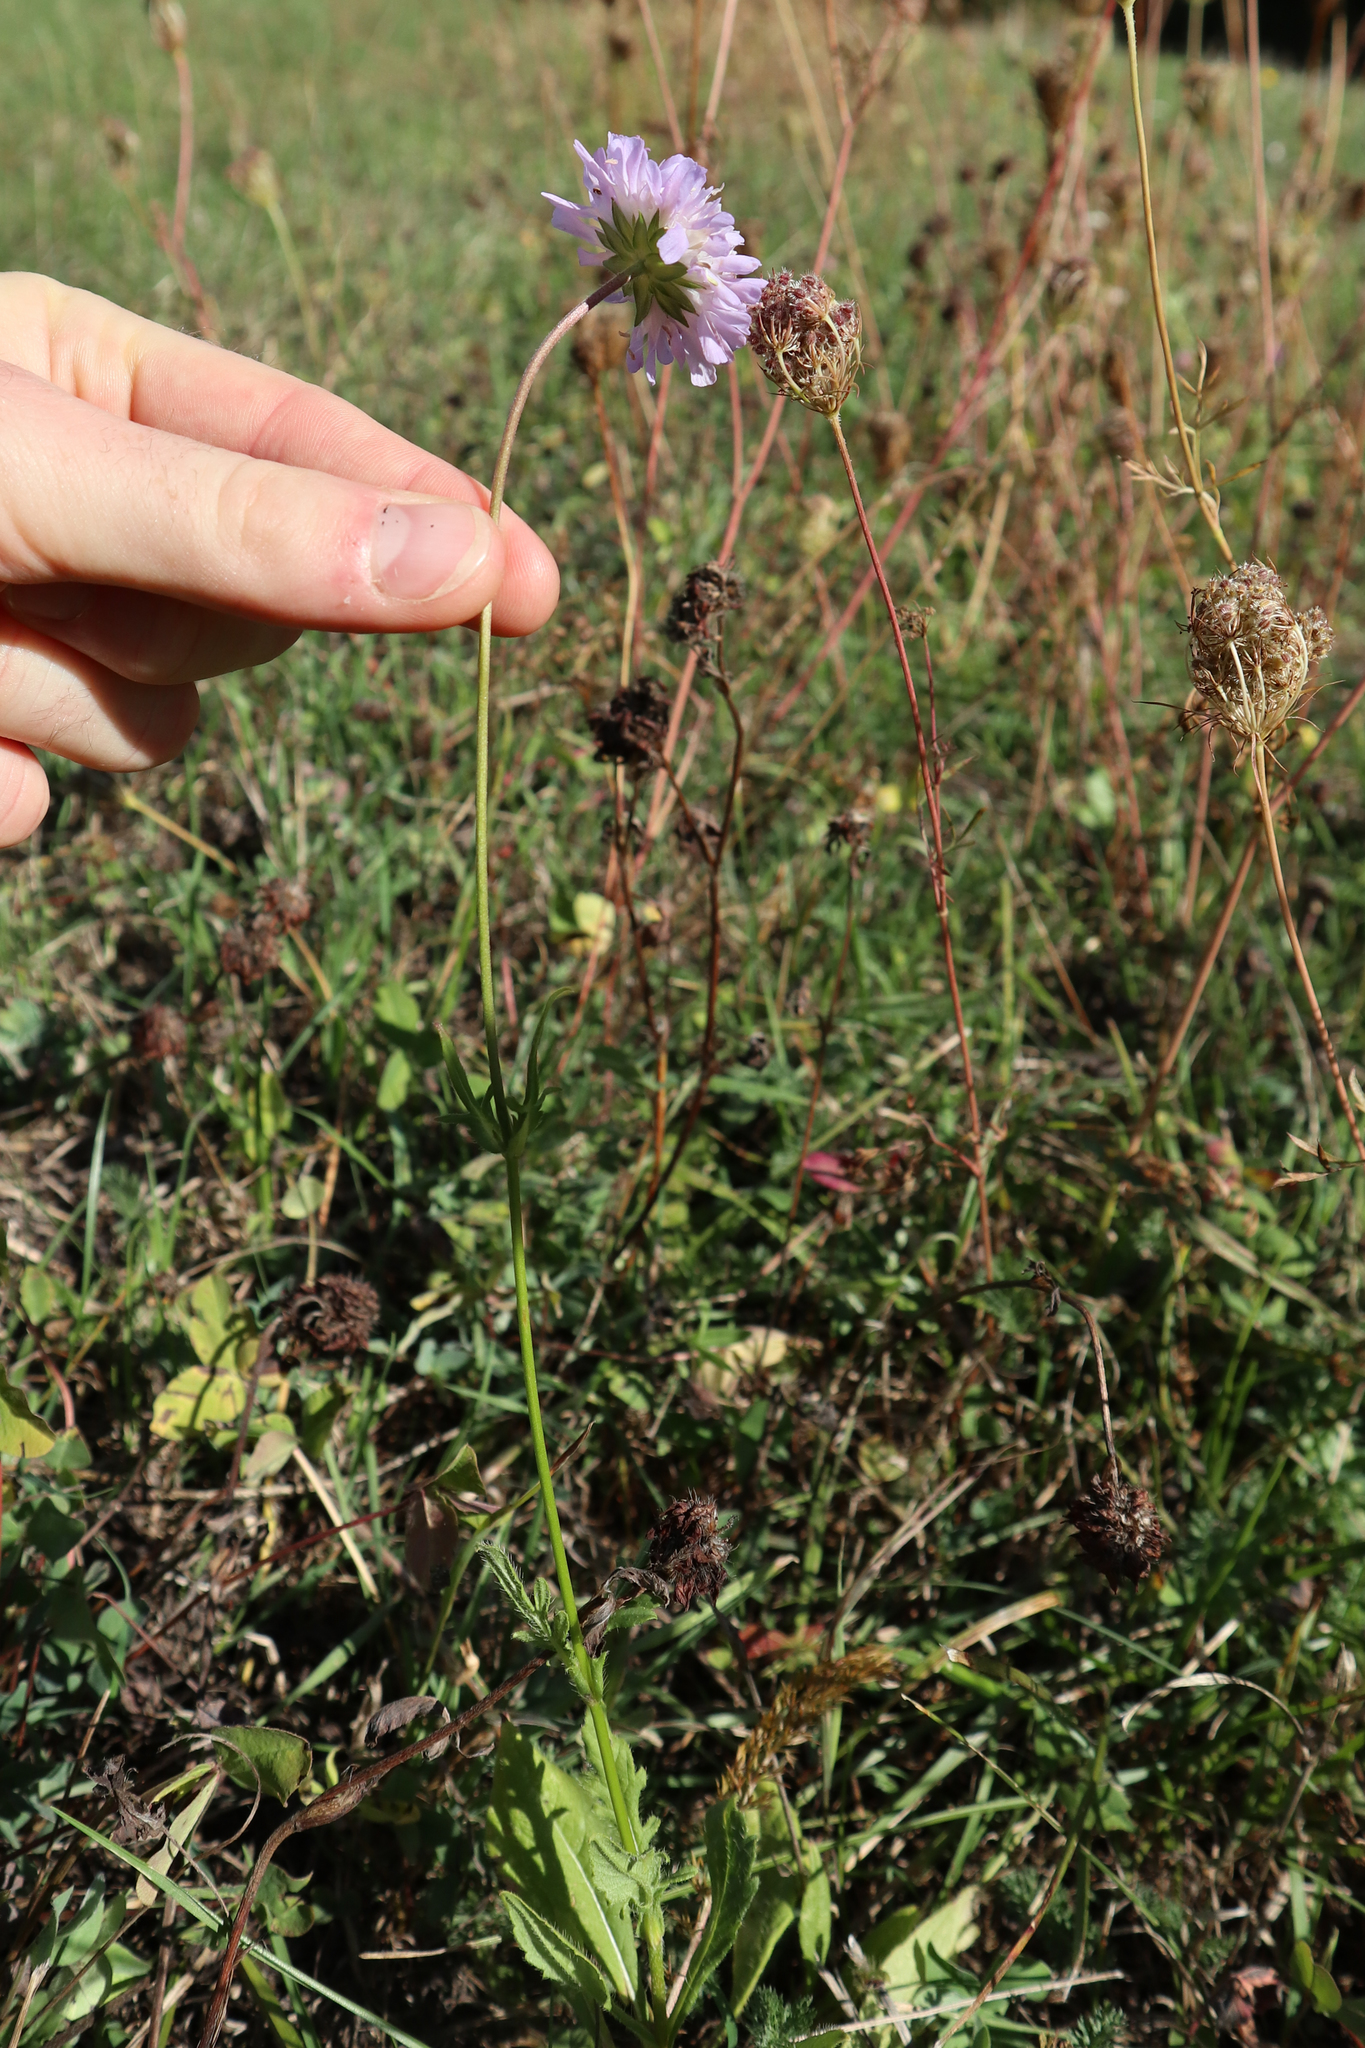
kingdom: Plantae
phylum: Tracheophyta
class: Magnoliopsida
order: Dipsacales
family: Caprifoliaceae
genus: Knautia
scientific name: Knautia arvensis
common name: Field scabiosa
